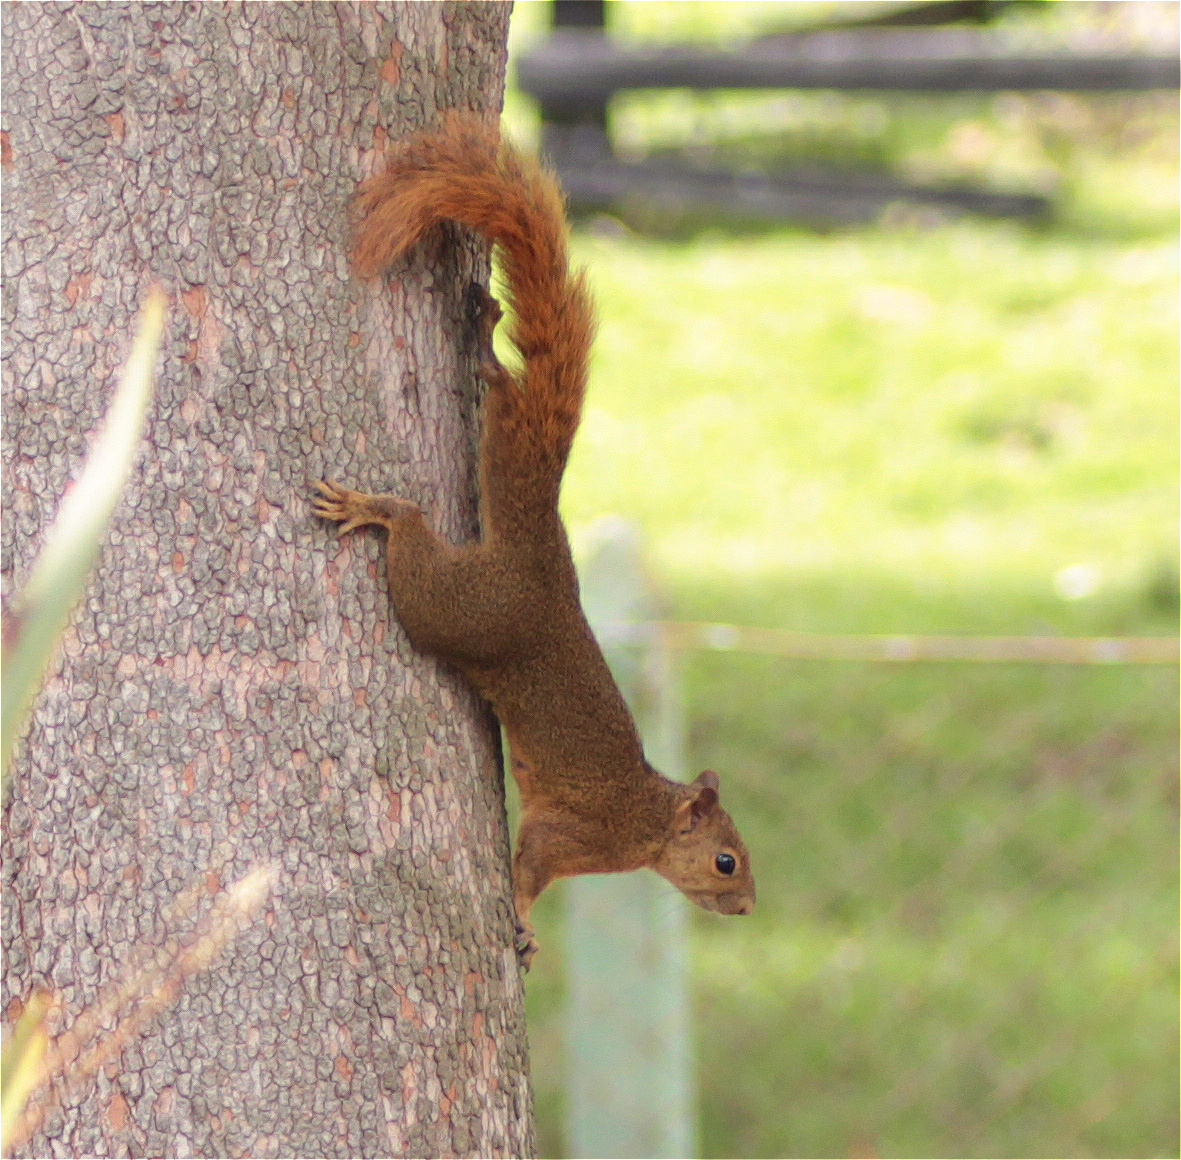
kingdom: Animalia
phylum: Chordata
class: Mammalia
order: Rodentia
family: Sciuridae
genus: Sciurus
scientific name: Sciurus granatensis
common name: Red-tailed squirrel
